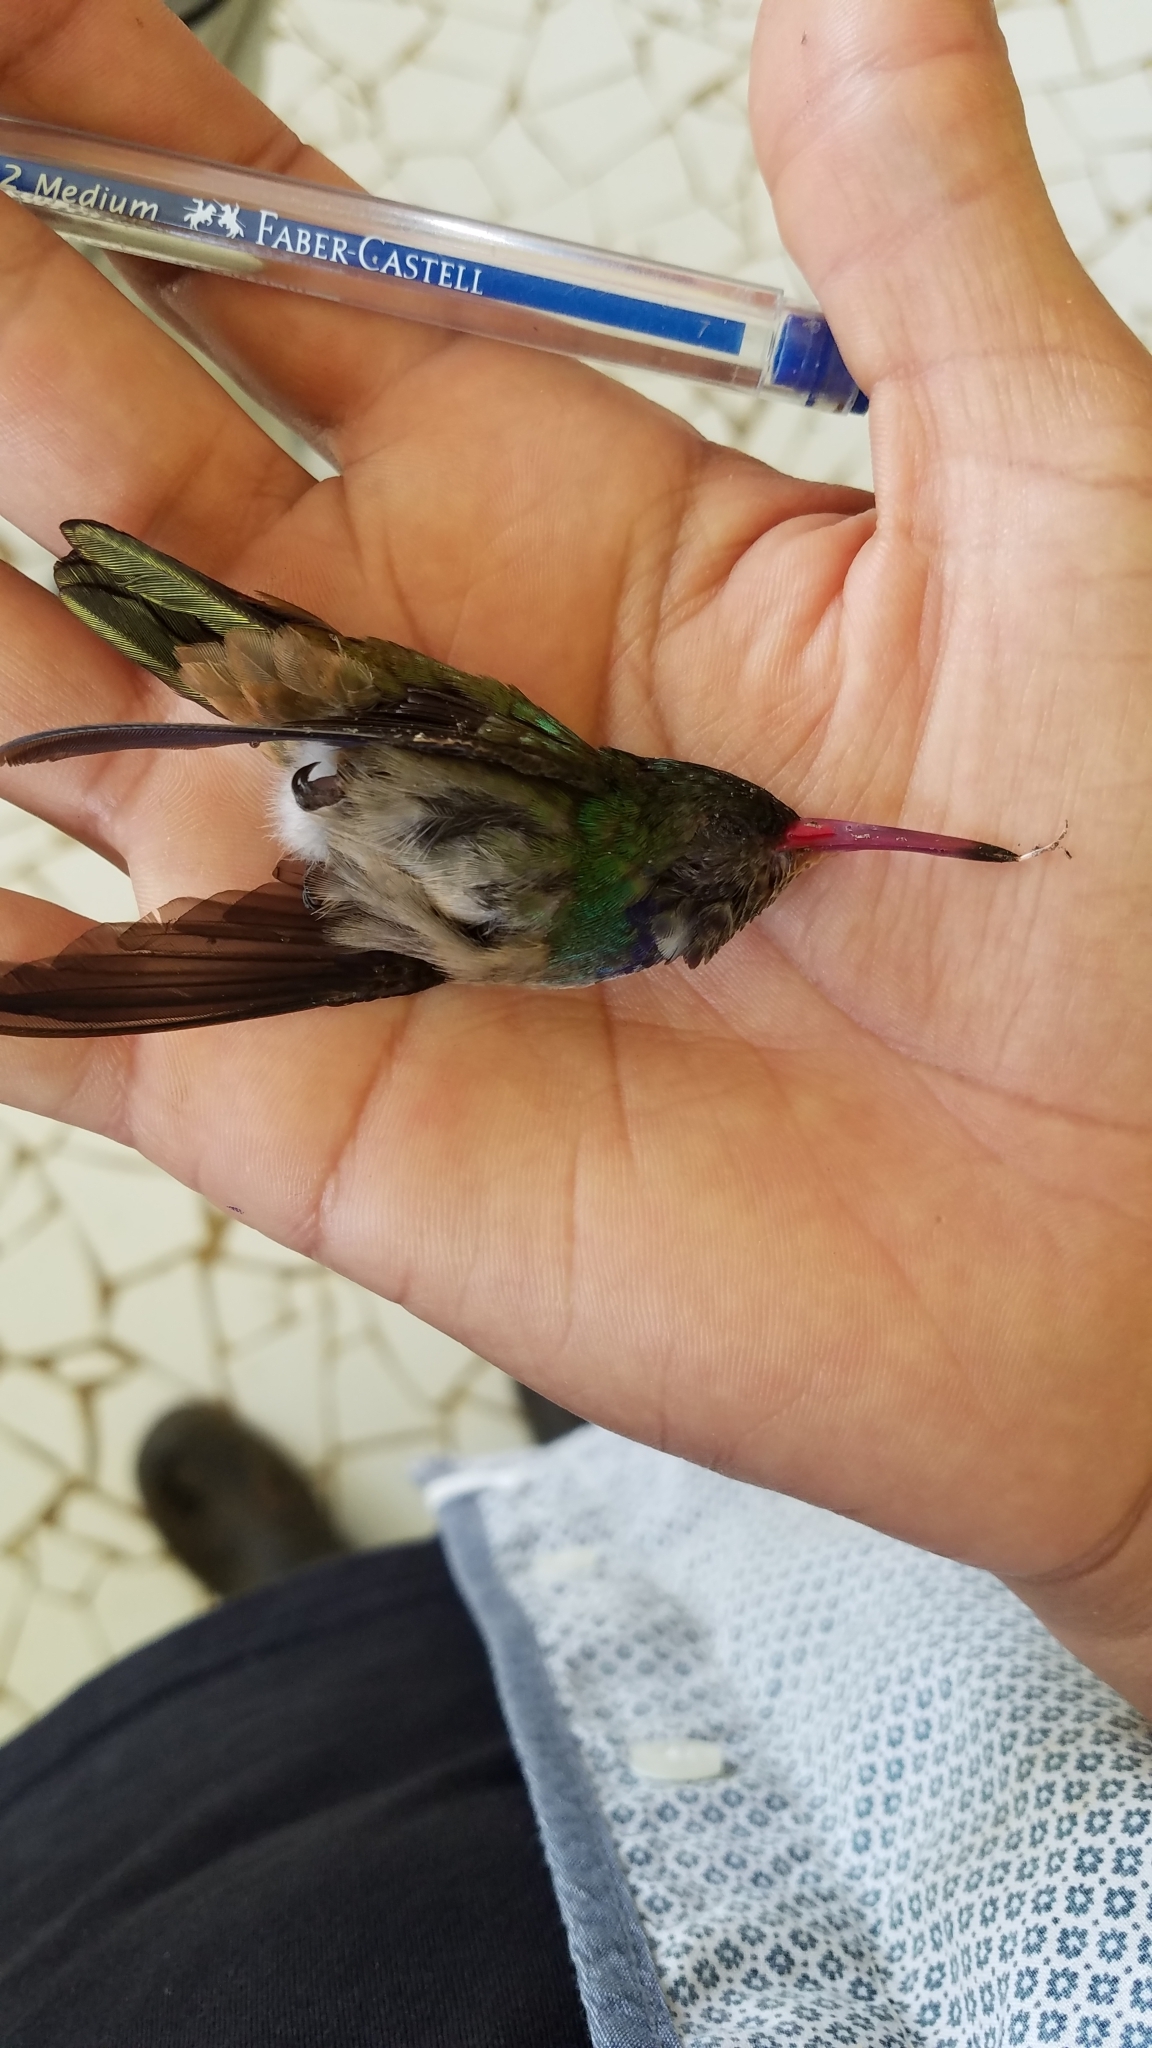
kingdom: Animalia
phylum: Chordata
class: Aves
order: Apodiformes
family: Trochilidae
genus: Chlorestes
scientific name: Chlorestes eliciae
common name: Blue-throated sapphire
